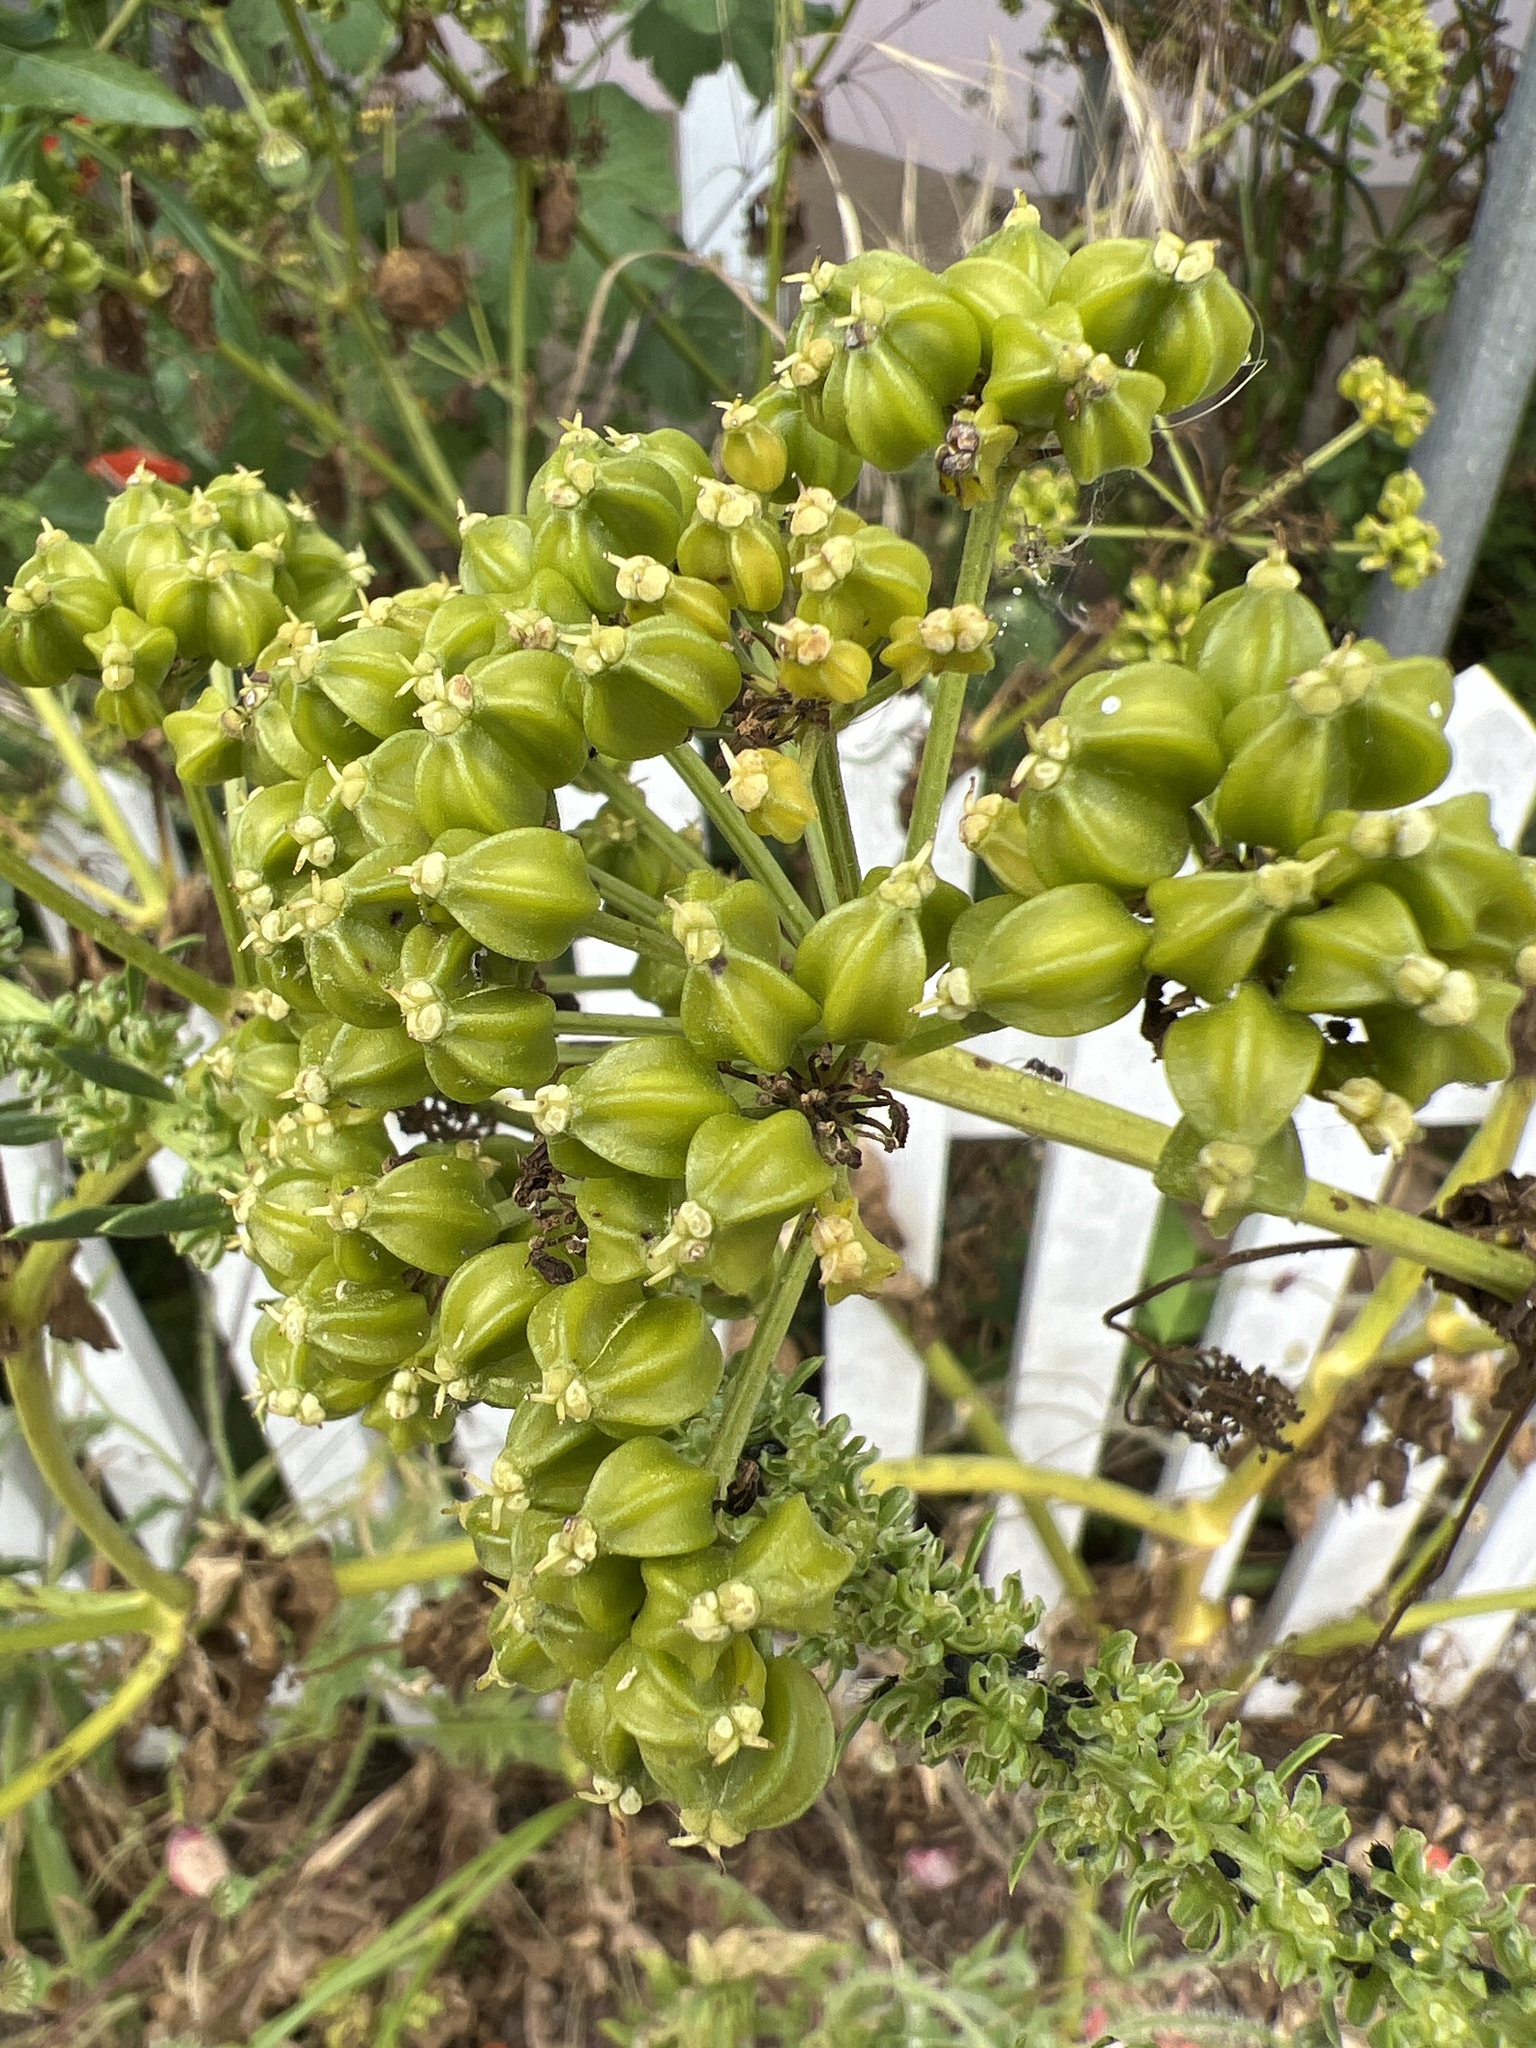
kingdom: Plantae
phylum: Tracheophyta
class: Magnoliopsida
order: Apiales
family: Apiaceae
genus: Smyrnium
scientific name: Smyrnium olusatrum
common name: Alexanders
